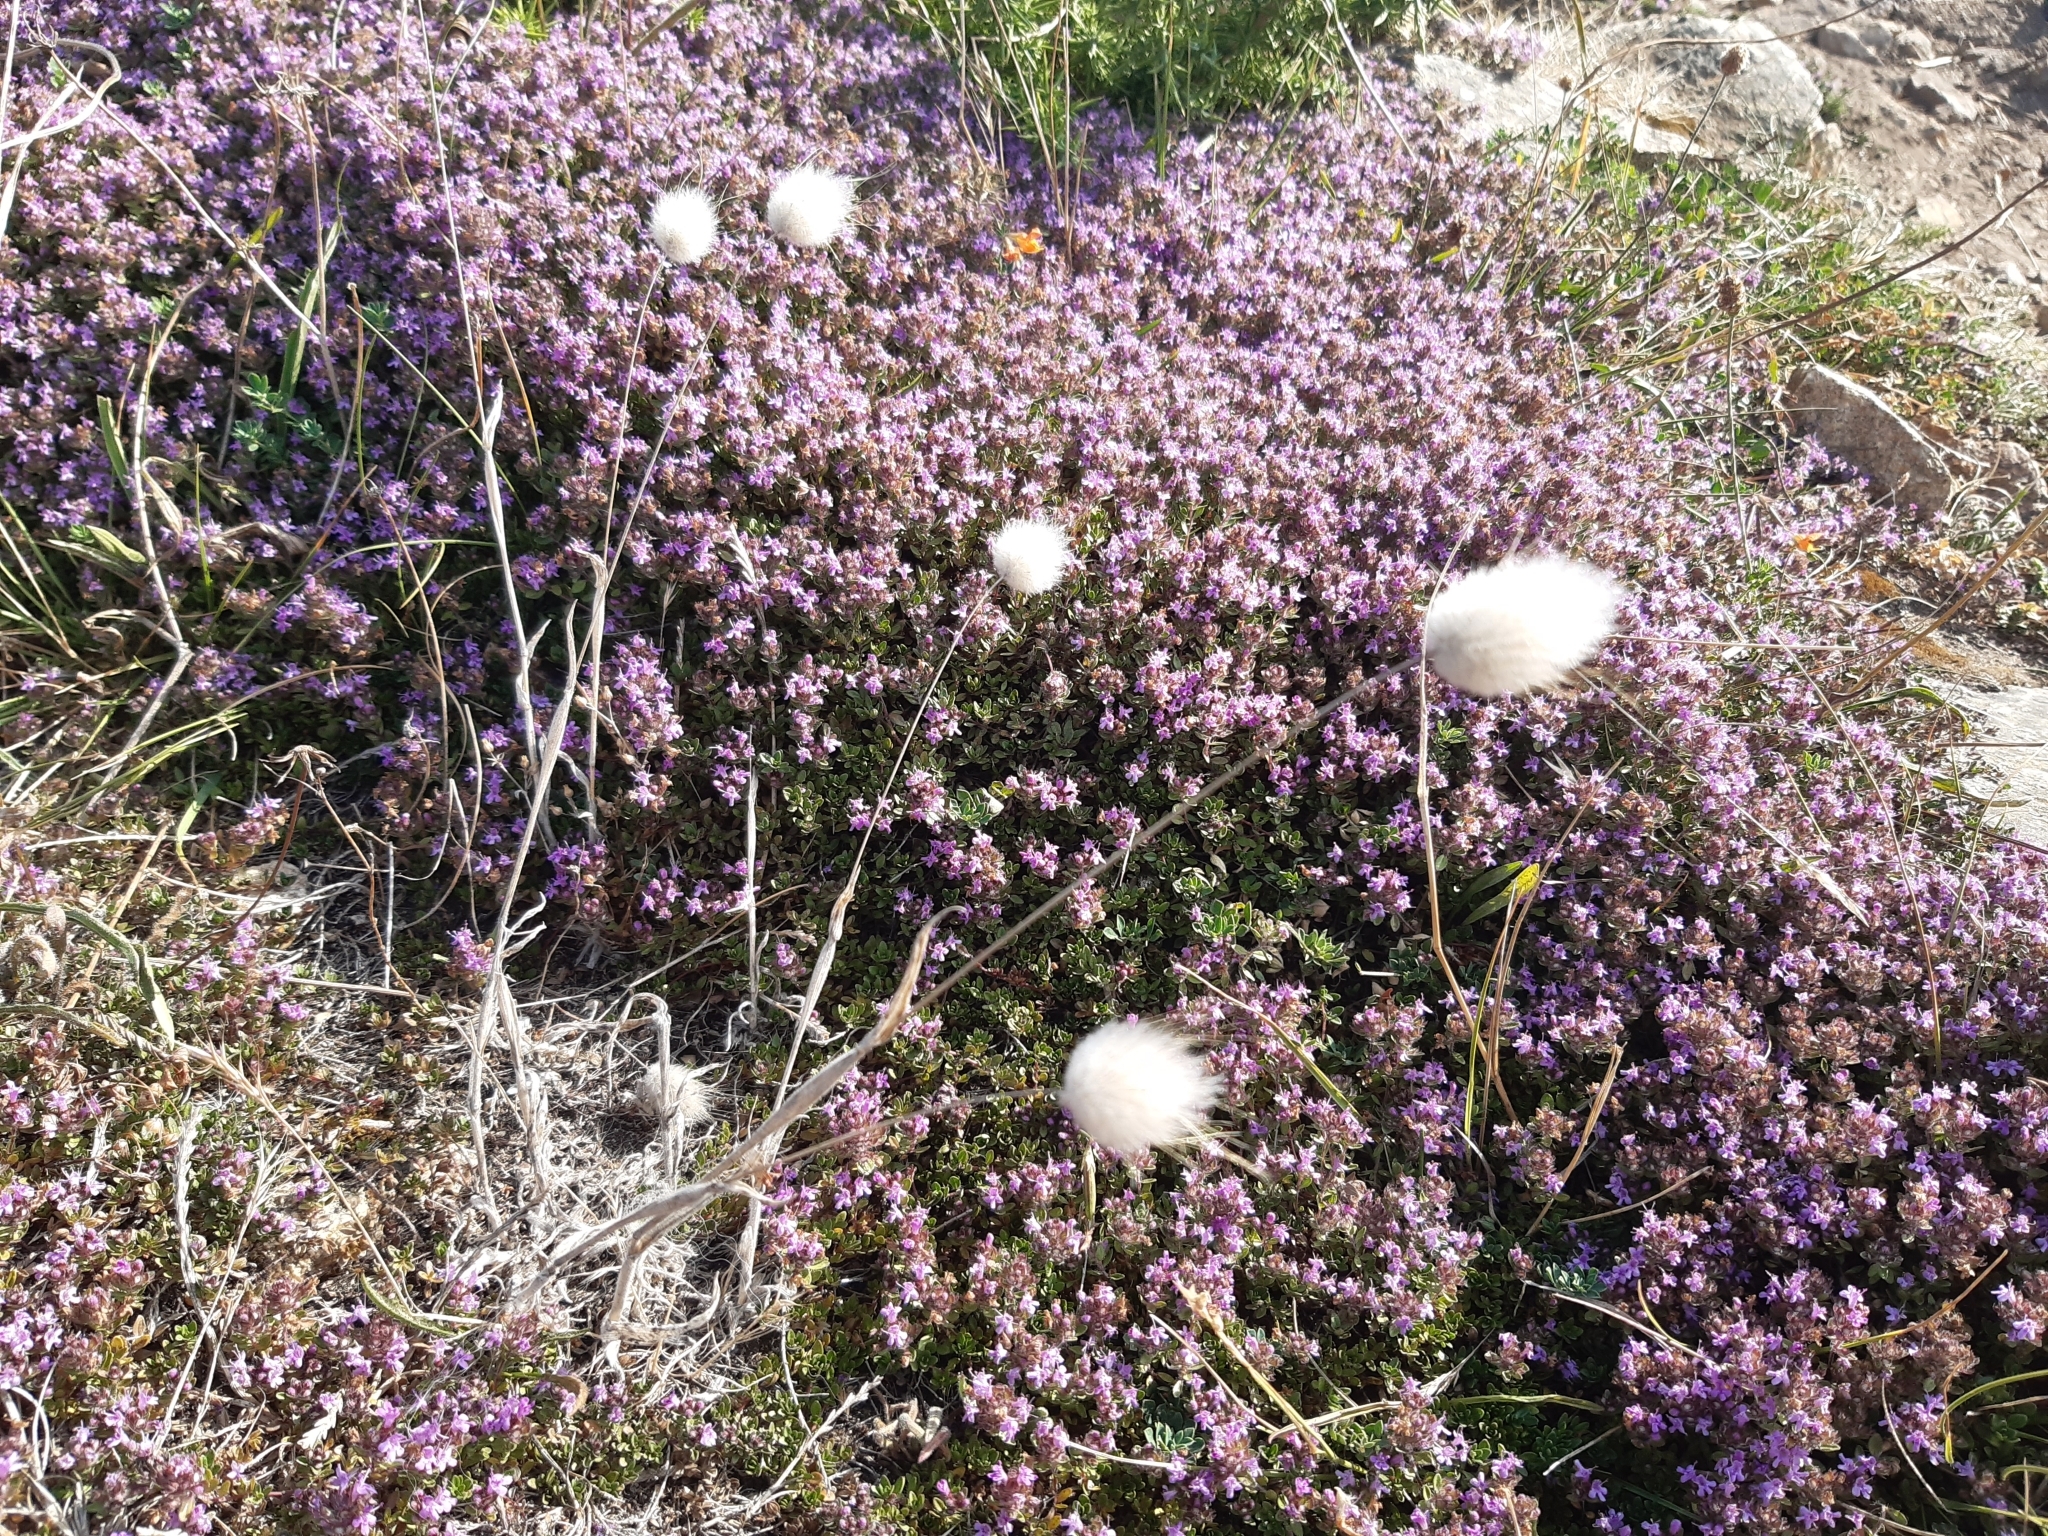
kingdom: Plantae
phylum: Tracheophyta
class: Liliopsida
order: Poales
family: Poaceae
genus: Lagurus
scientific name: Lagurus ovatus
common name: Hare's-tail
